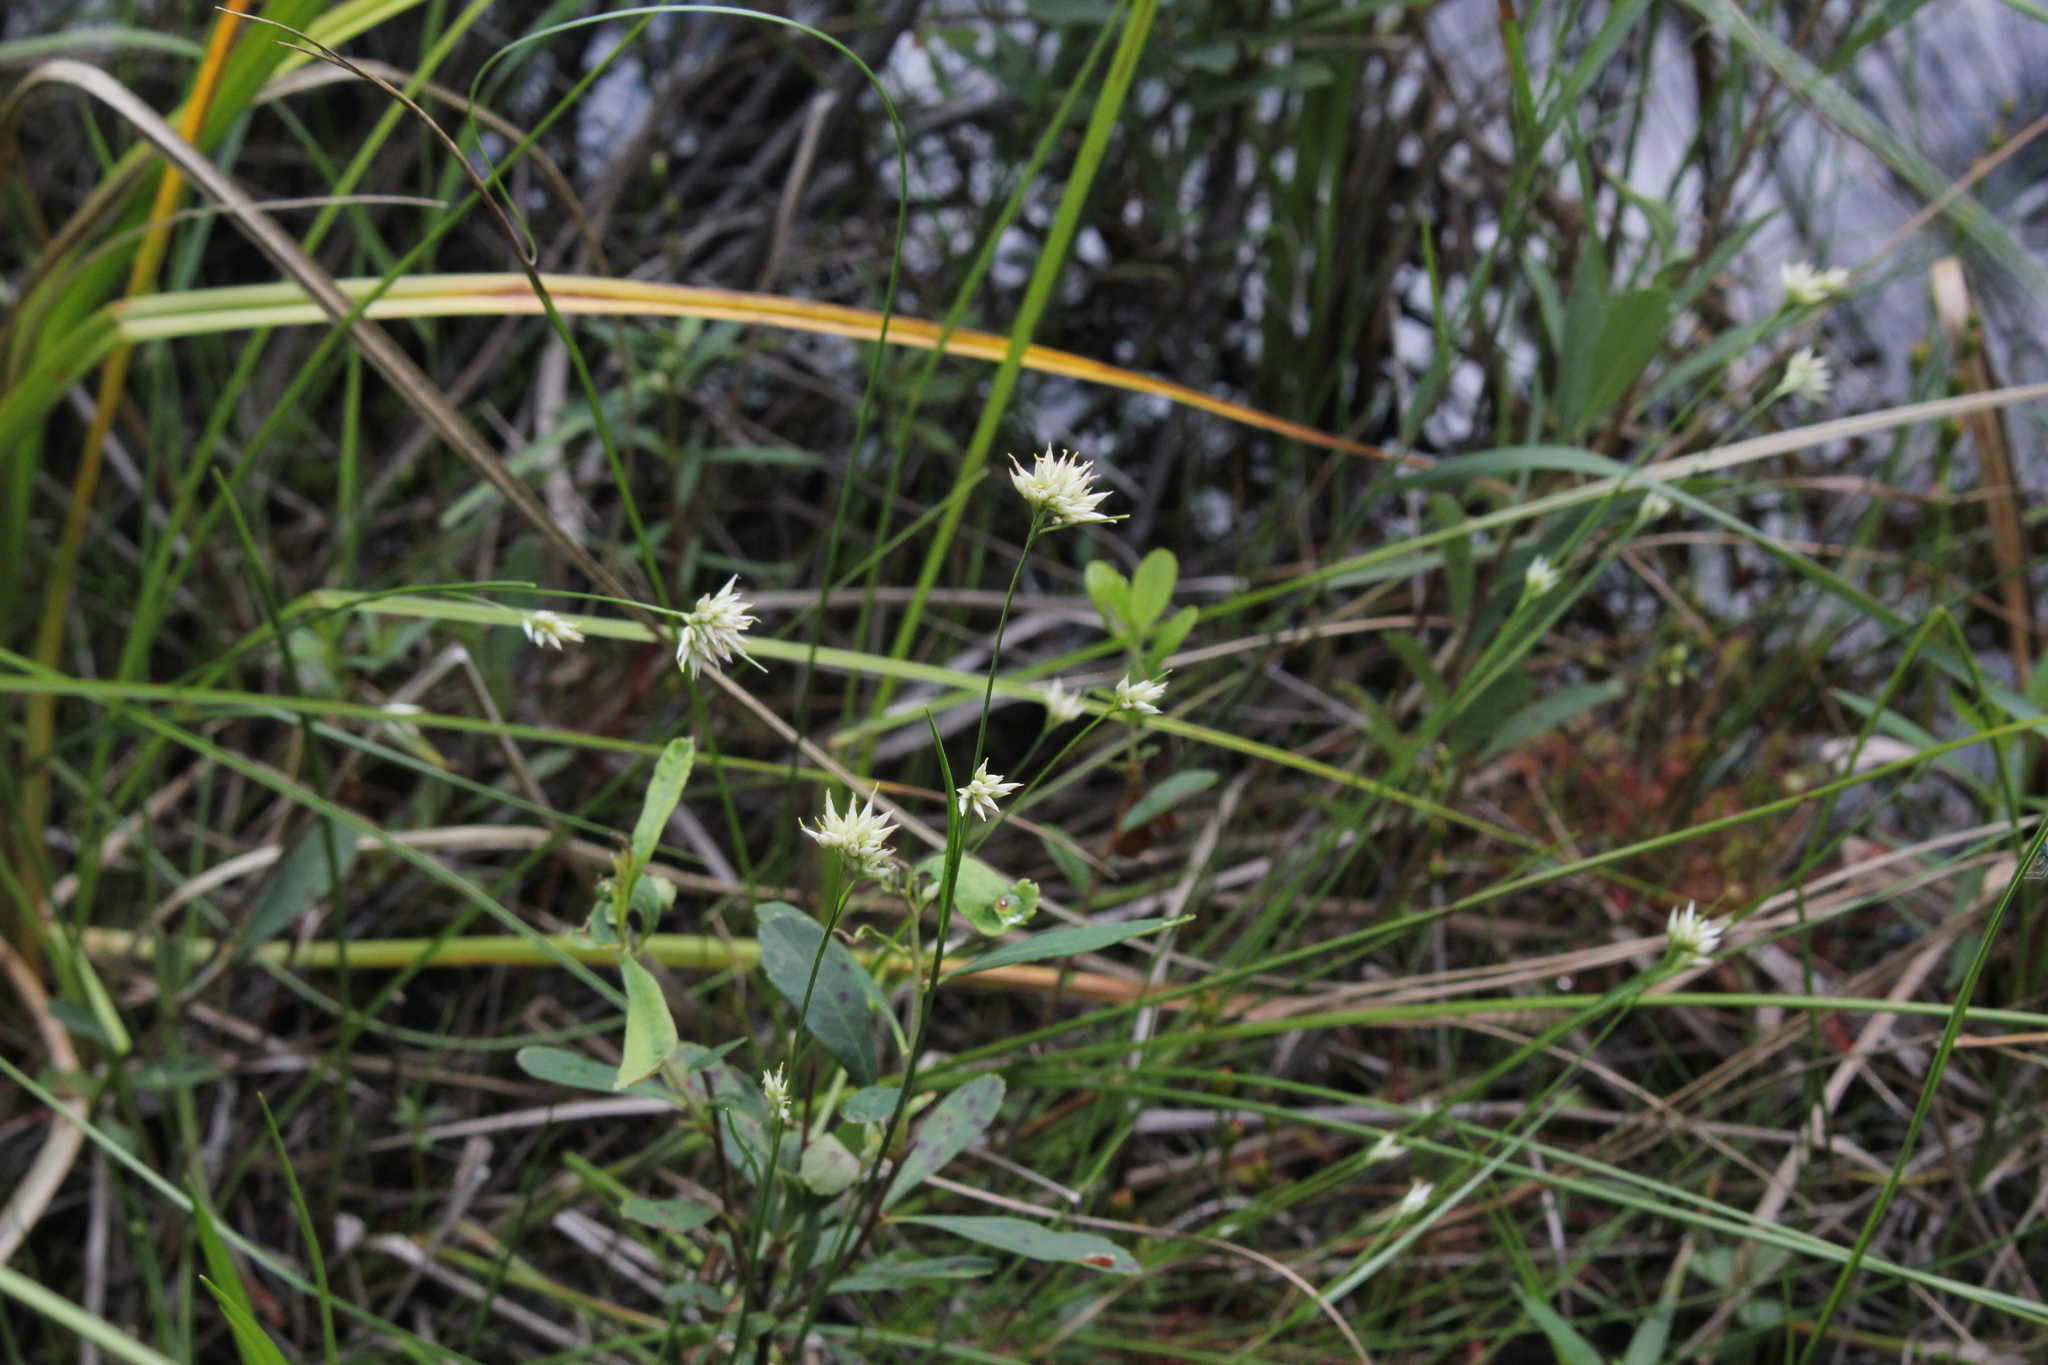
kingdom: Plantae
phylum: Tracheophyta
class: Liliopsida
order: Poales
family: Cyperaceae
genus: Rhynchospora
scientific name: Rhynchospora alba
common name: White beak-sedge
